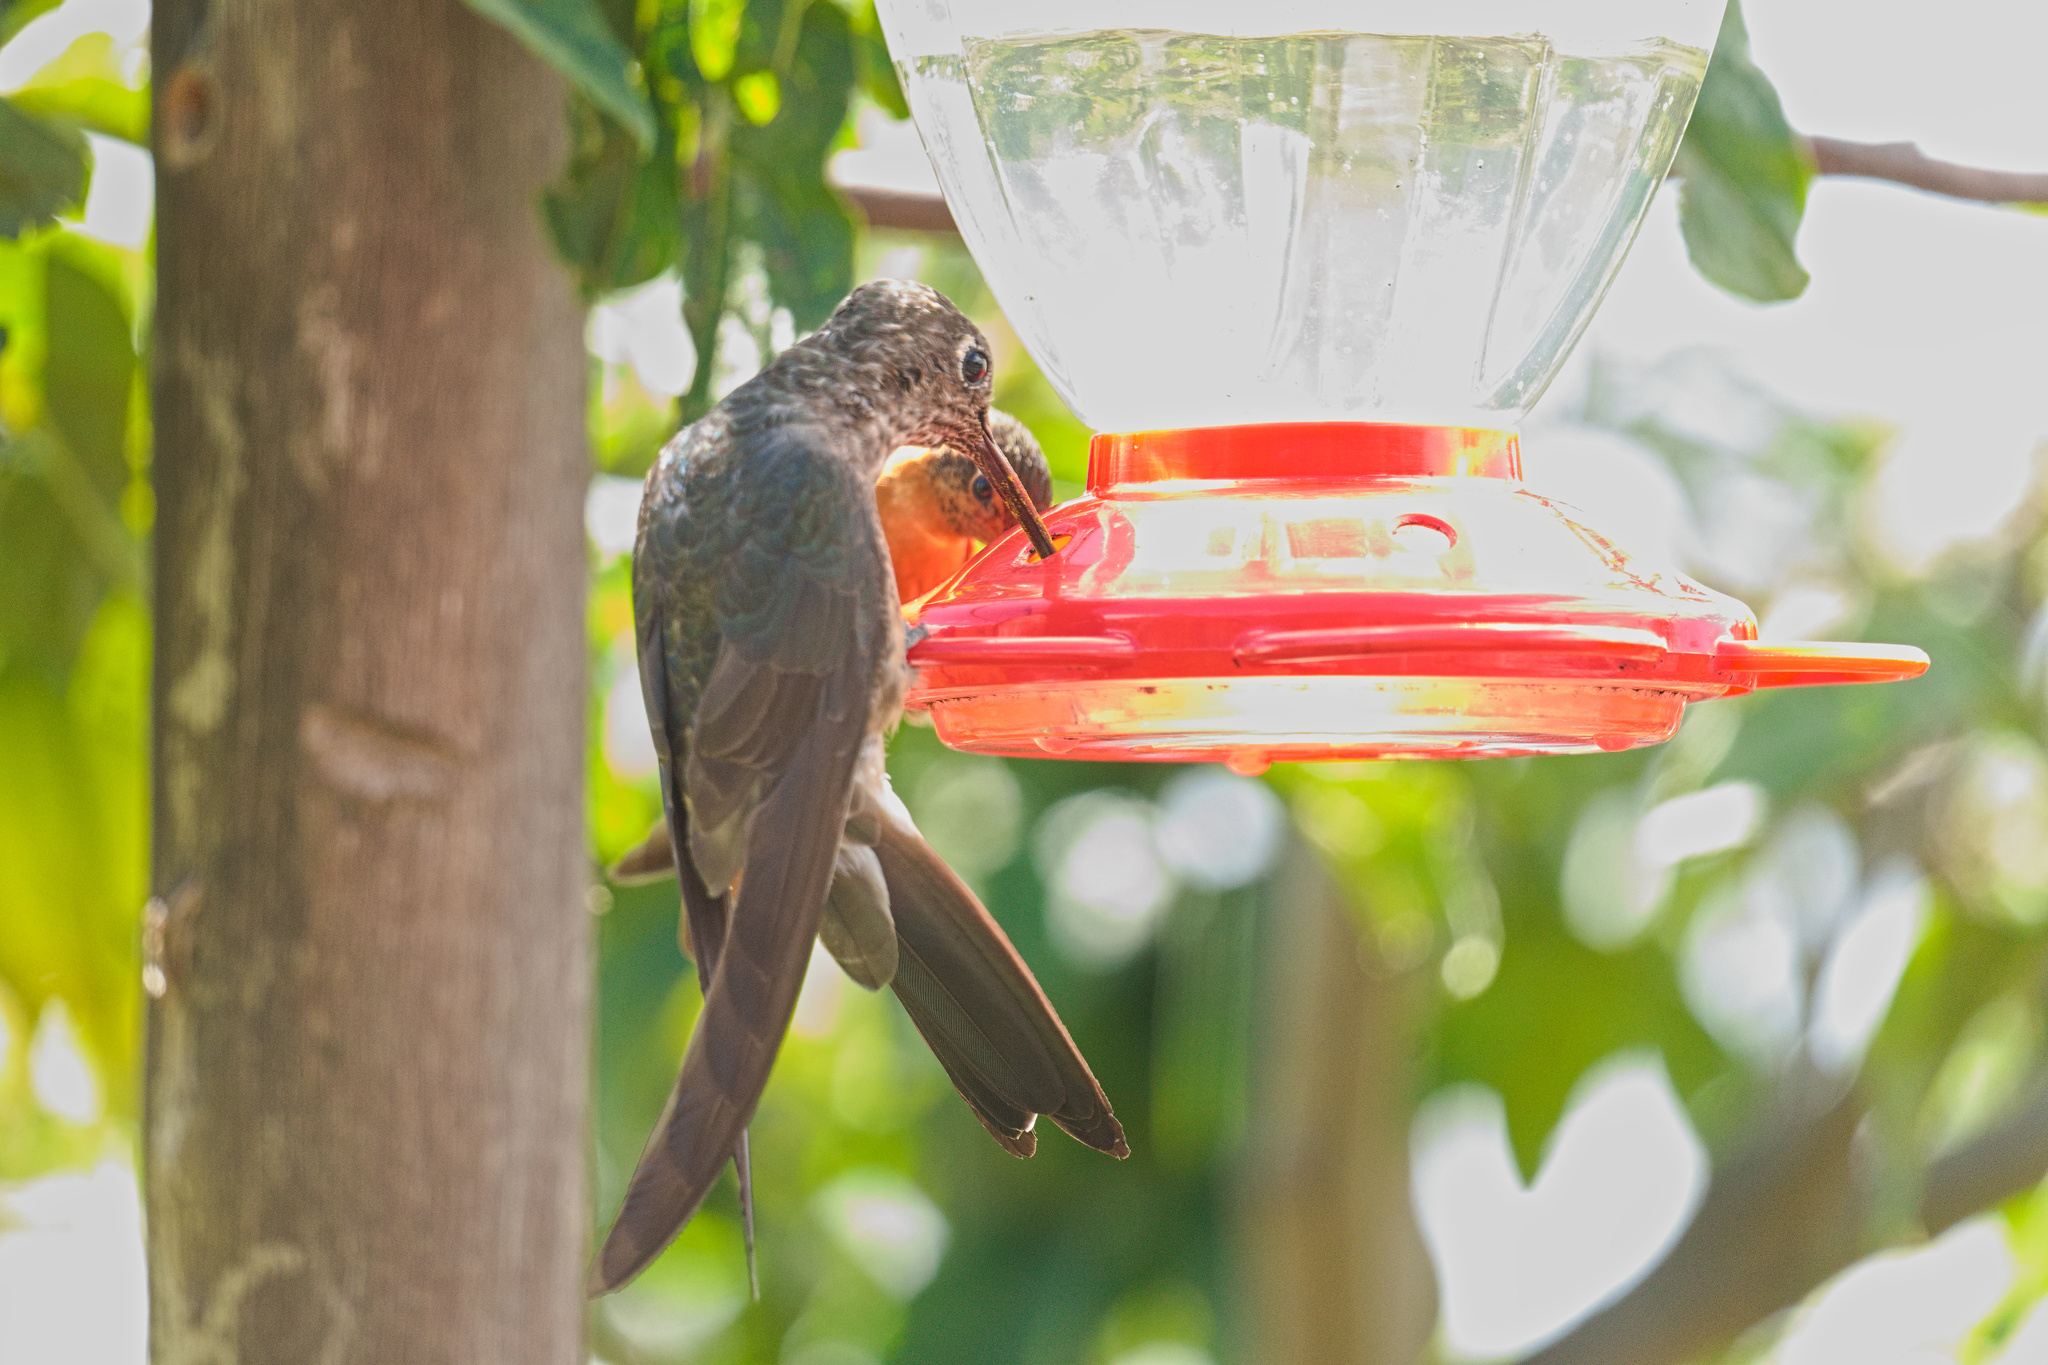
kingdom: Animalia
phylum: Chordata
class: Aves
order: Apodiformes
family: Trochilidae
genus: Patagona
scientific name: Patagona gigas
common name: Giant hummingbird
